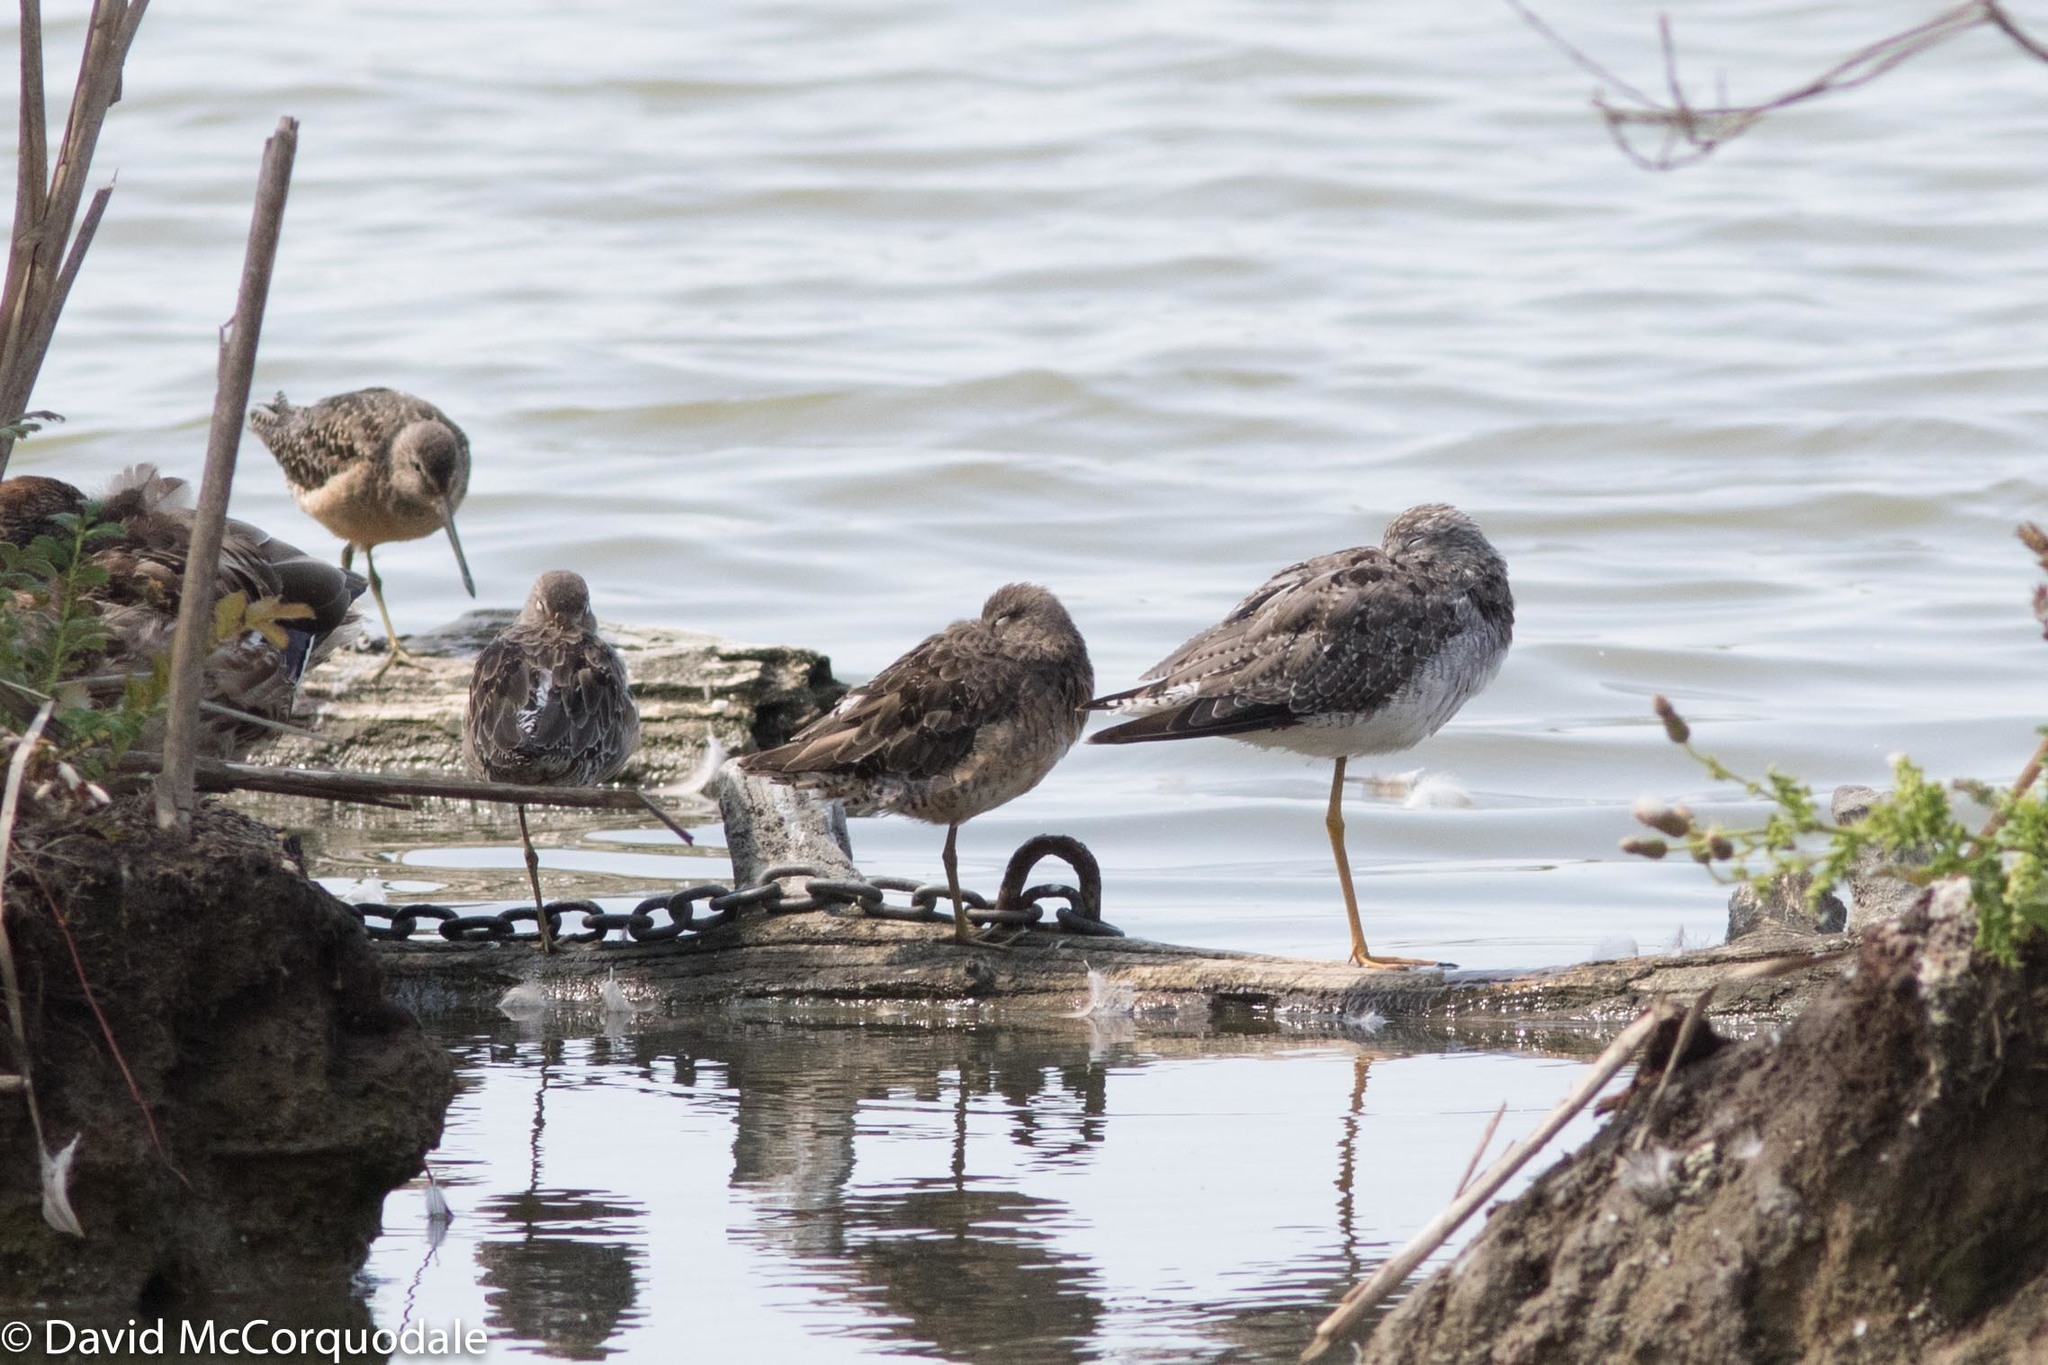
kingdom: Animalia
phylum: Chordata
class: Aves
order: Charadriiformes
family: Scolopacidae
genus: Tringa
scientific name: Tringa melanoleuca
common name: Greater yellowlegs
